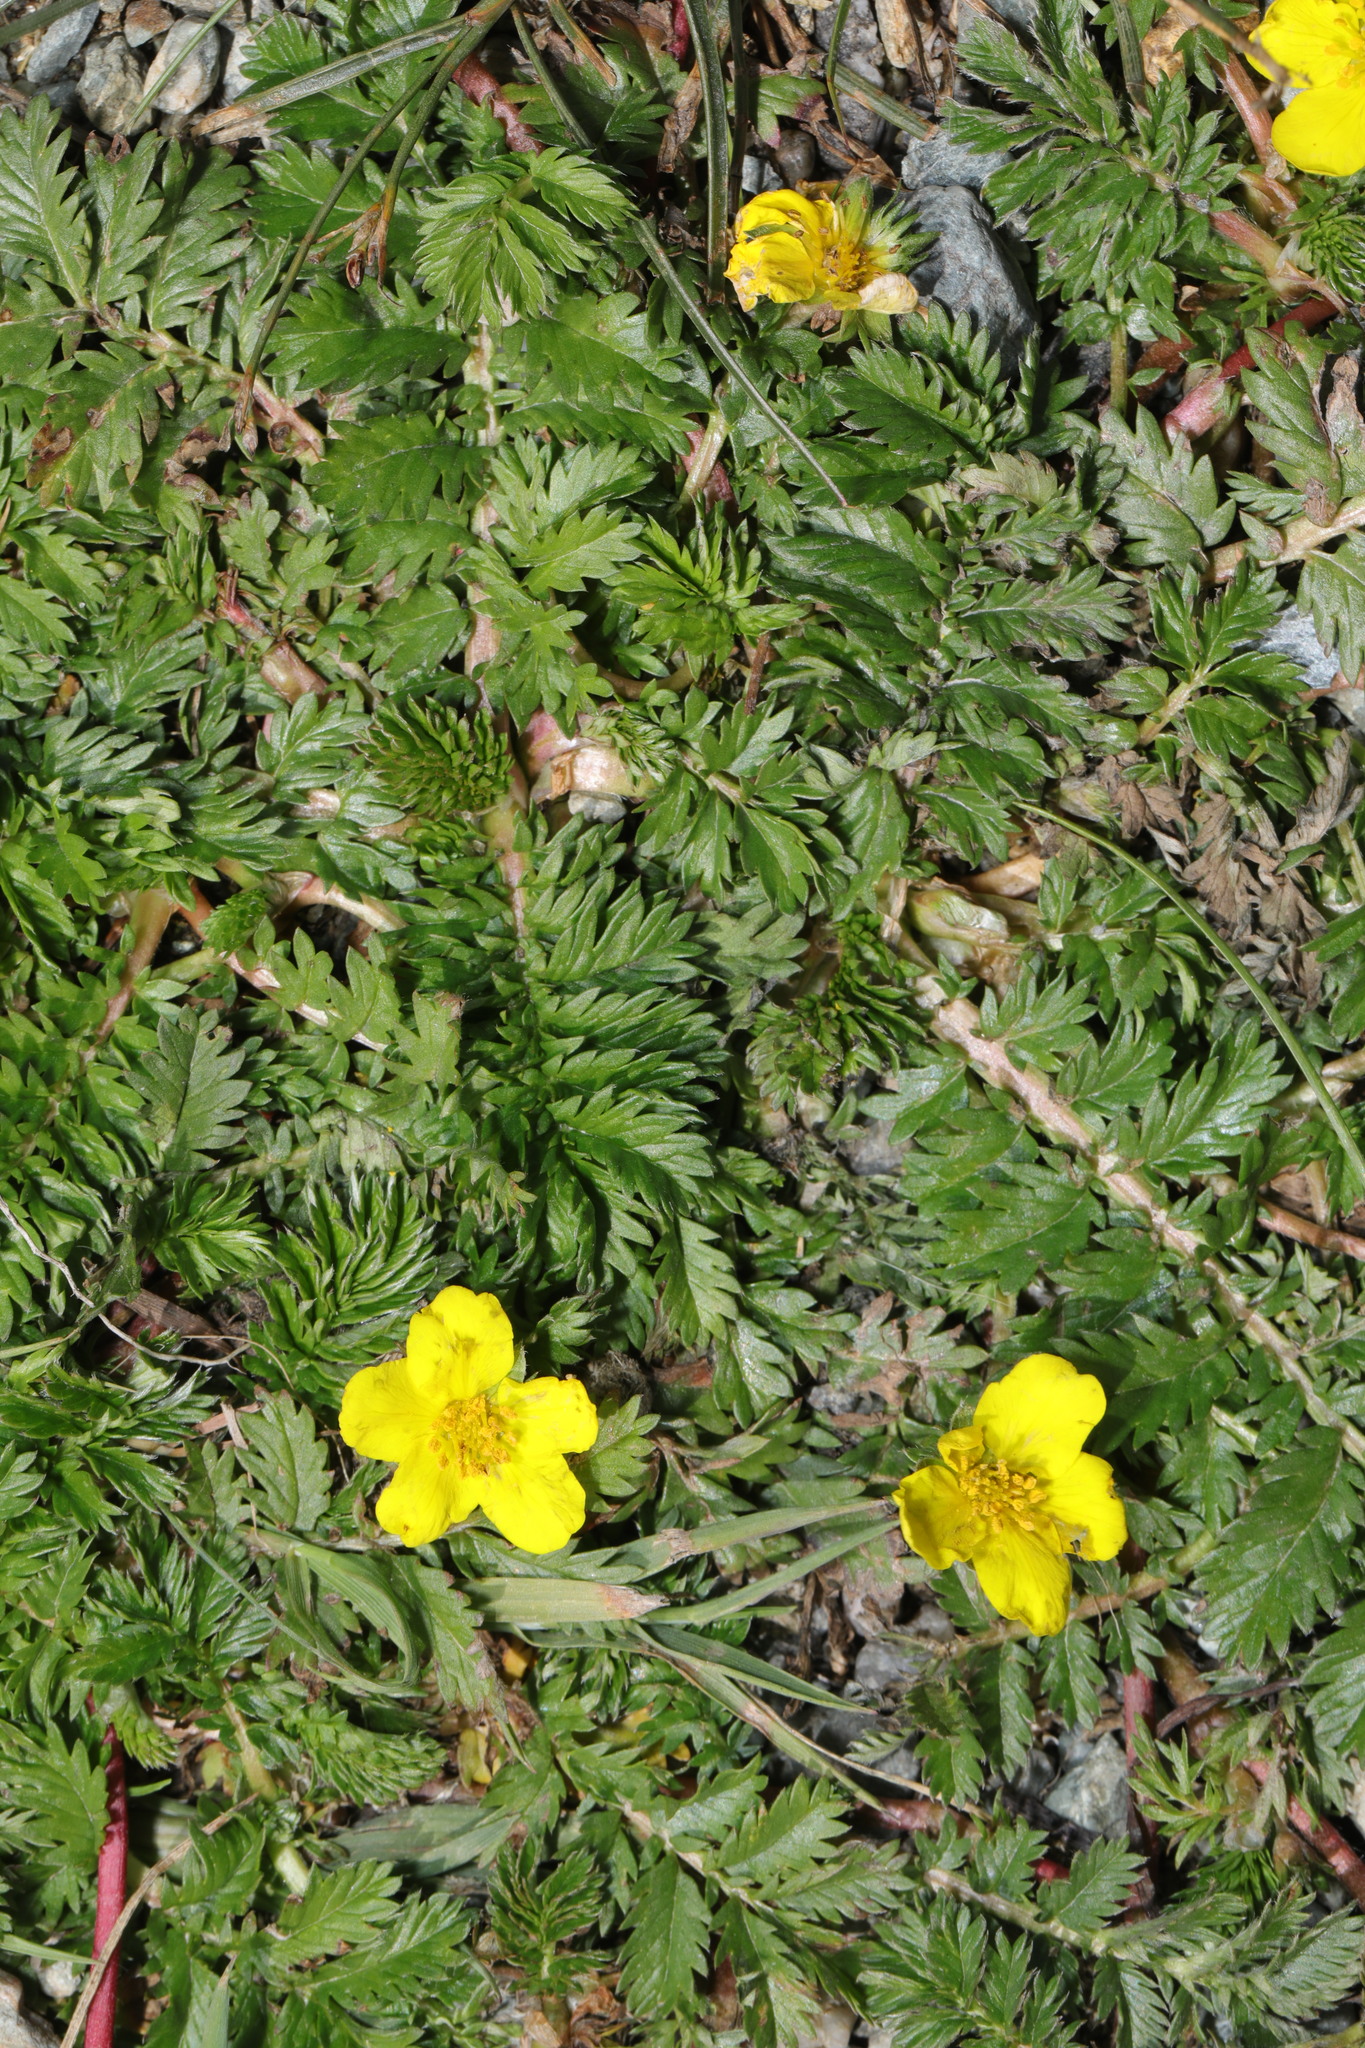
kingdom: Plantae
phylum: Tracheophyta
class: Magnoliopsida
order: Rosales
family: Rosaceae
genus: Argentina
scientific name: Argentina anserina
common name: Common silverweed
